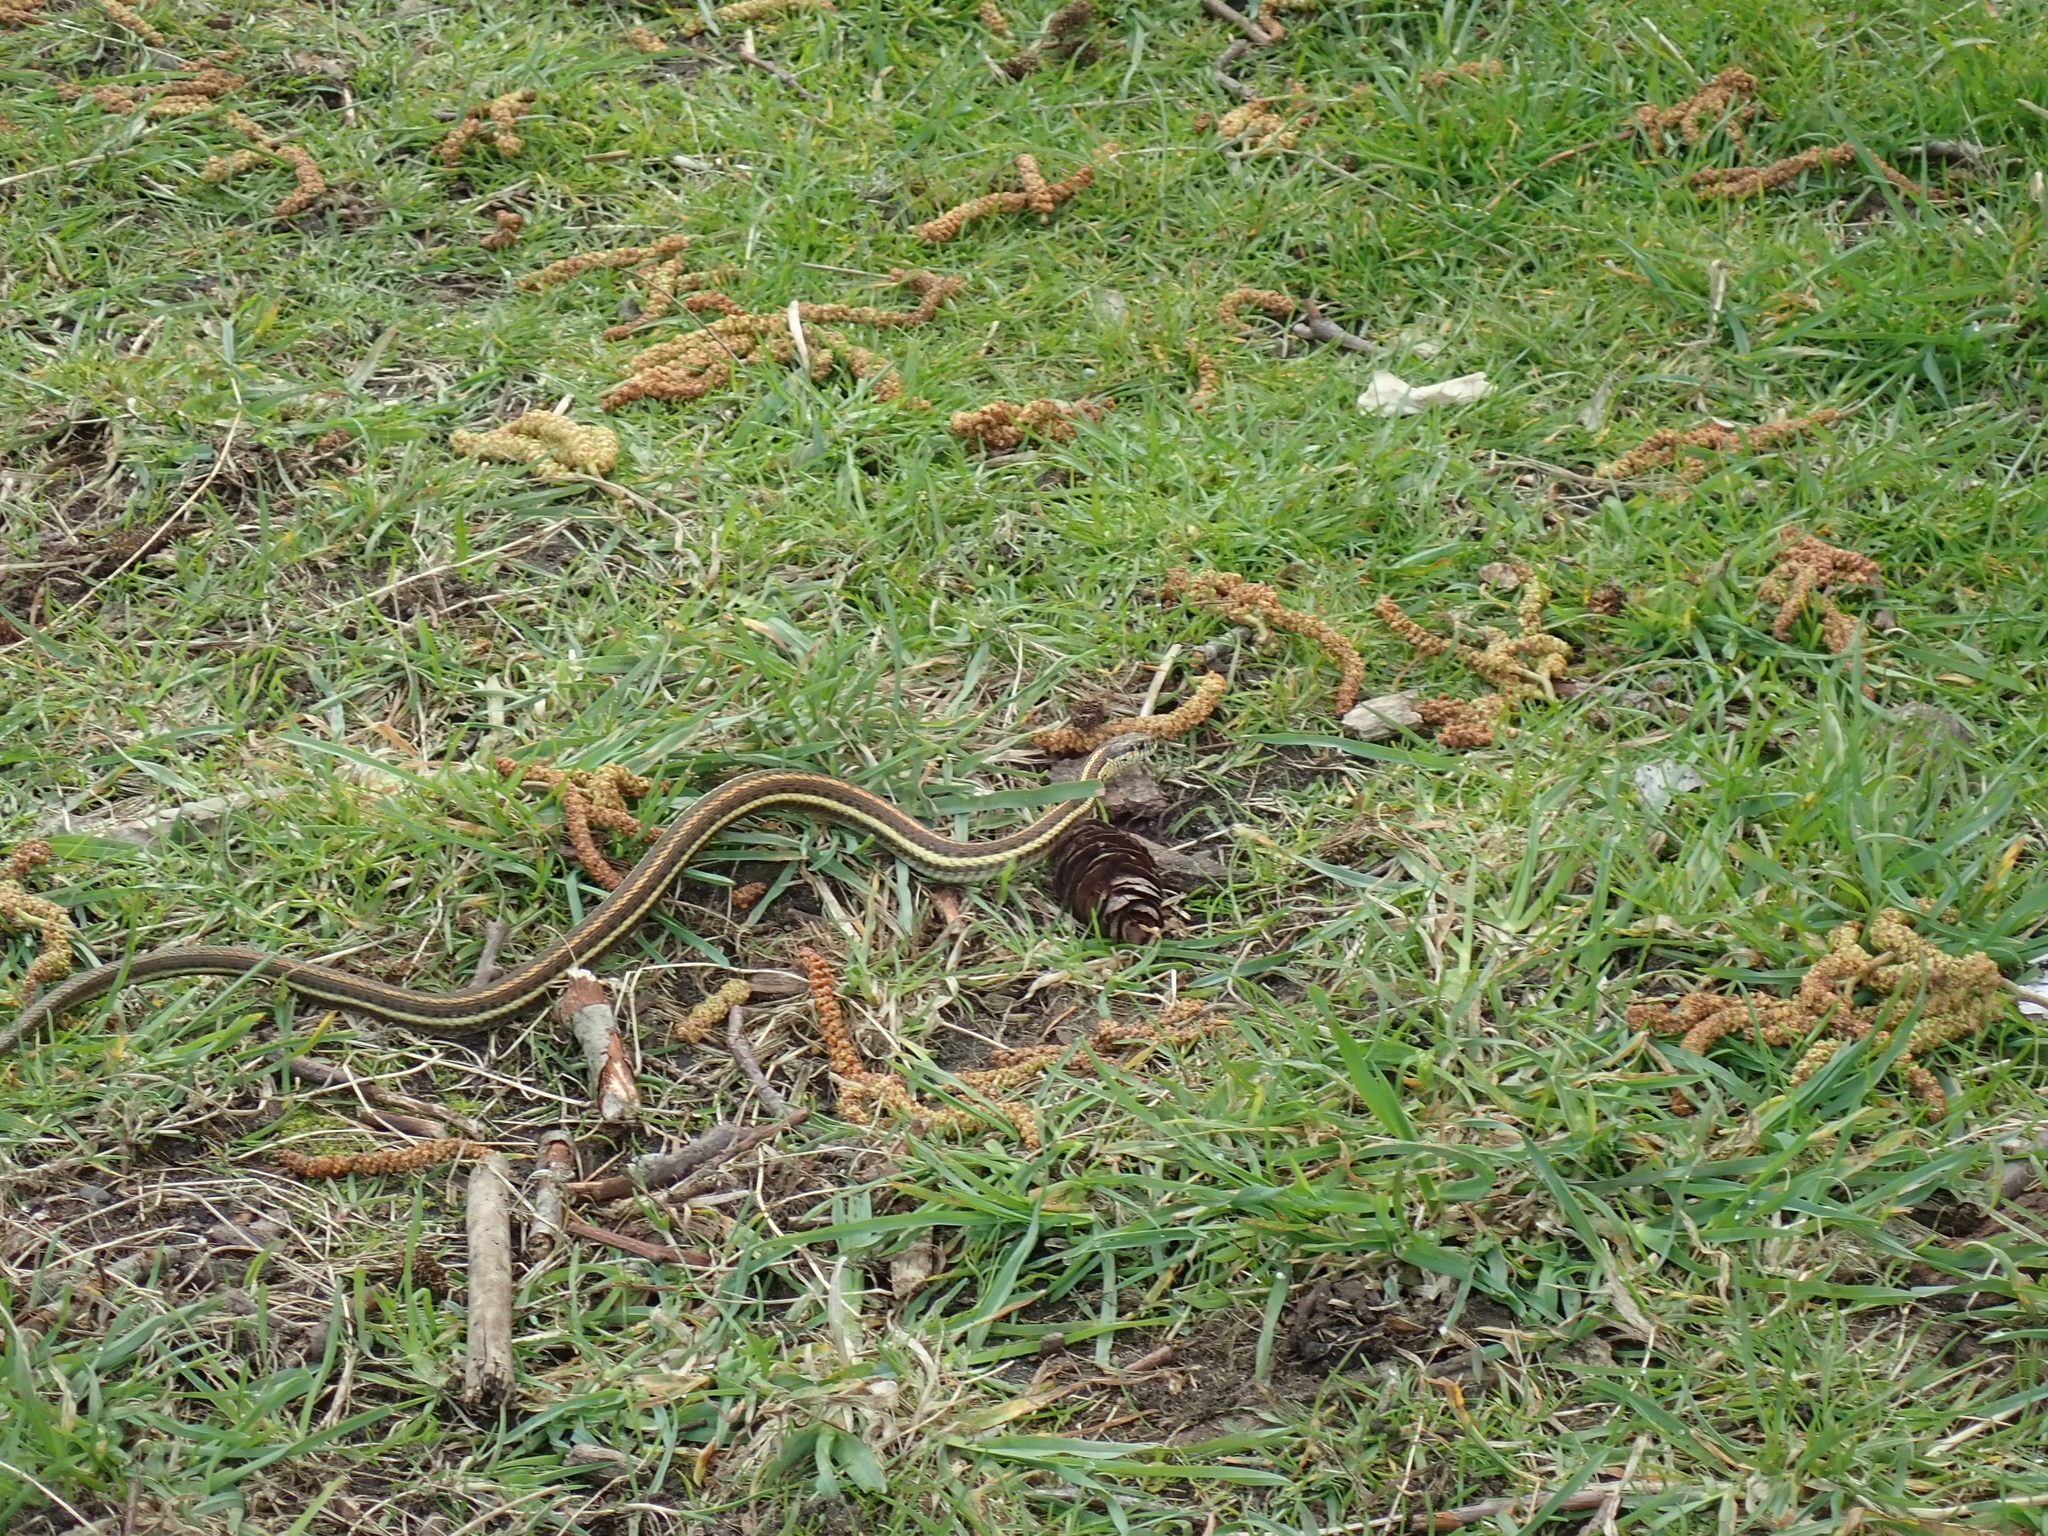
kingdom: Animalia
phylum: Chordata
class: Squamata
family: Colubridae
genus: Thamnophis
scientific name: Thamnophis ordinoides
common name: Northwestern garter snake
